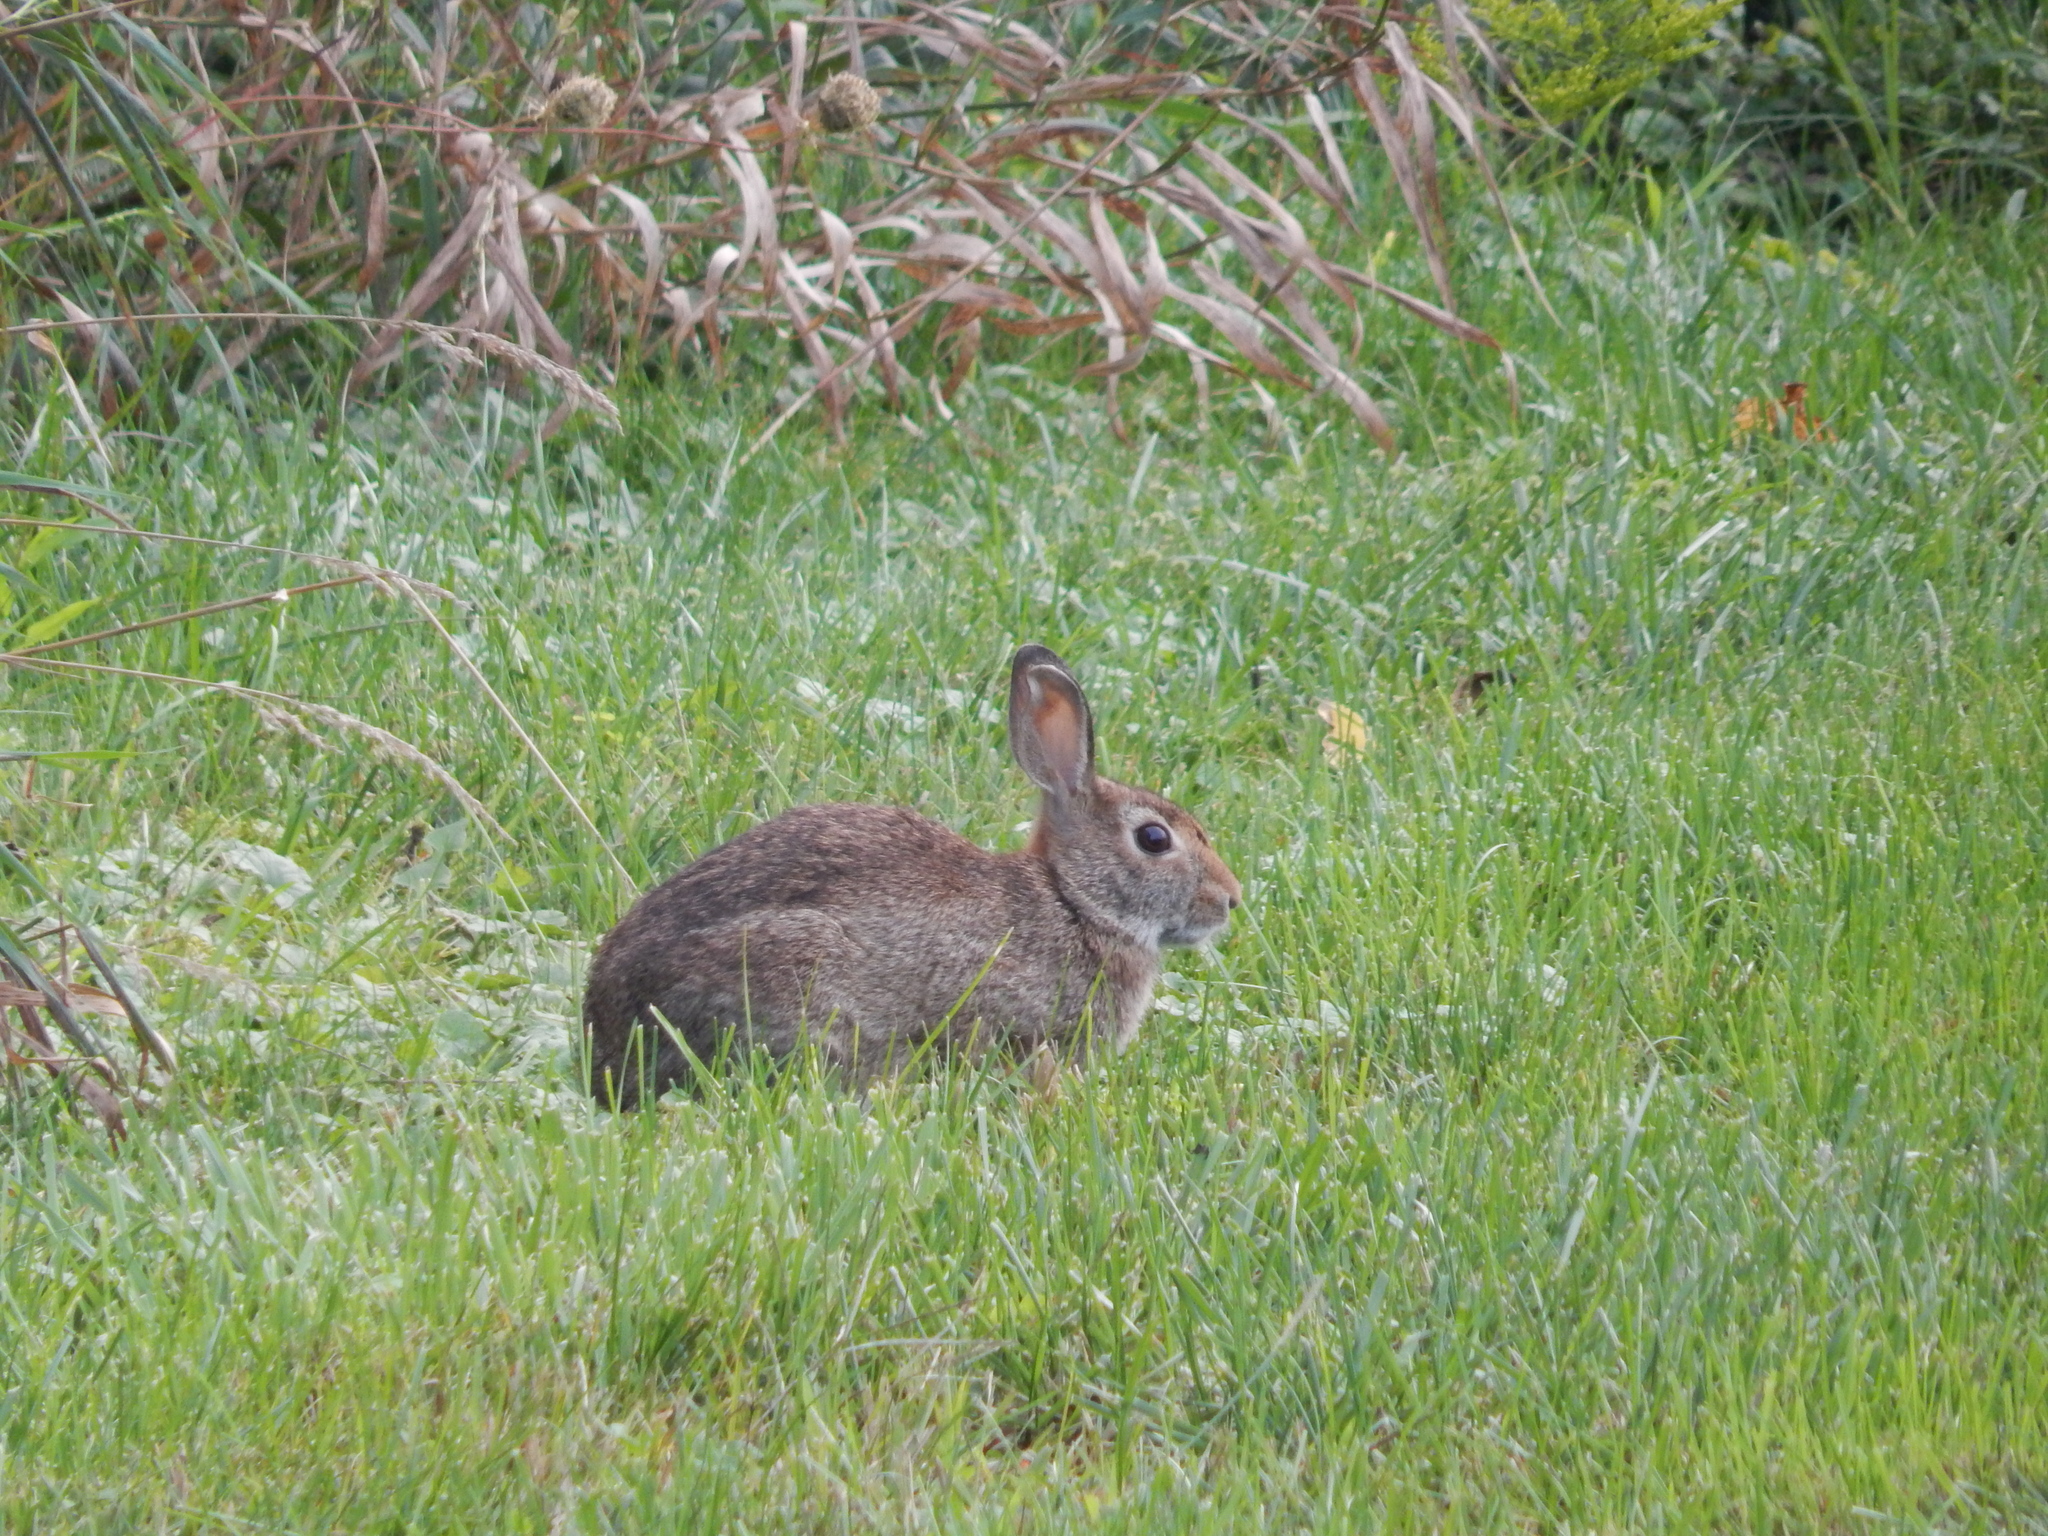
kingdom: Animalia
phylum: Chordata
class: Mammalia
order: Lagomorpha
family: Leporidae
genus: Sylvilagus
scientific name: Sylvilagus floridanus
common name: Eastern cottontail
